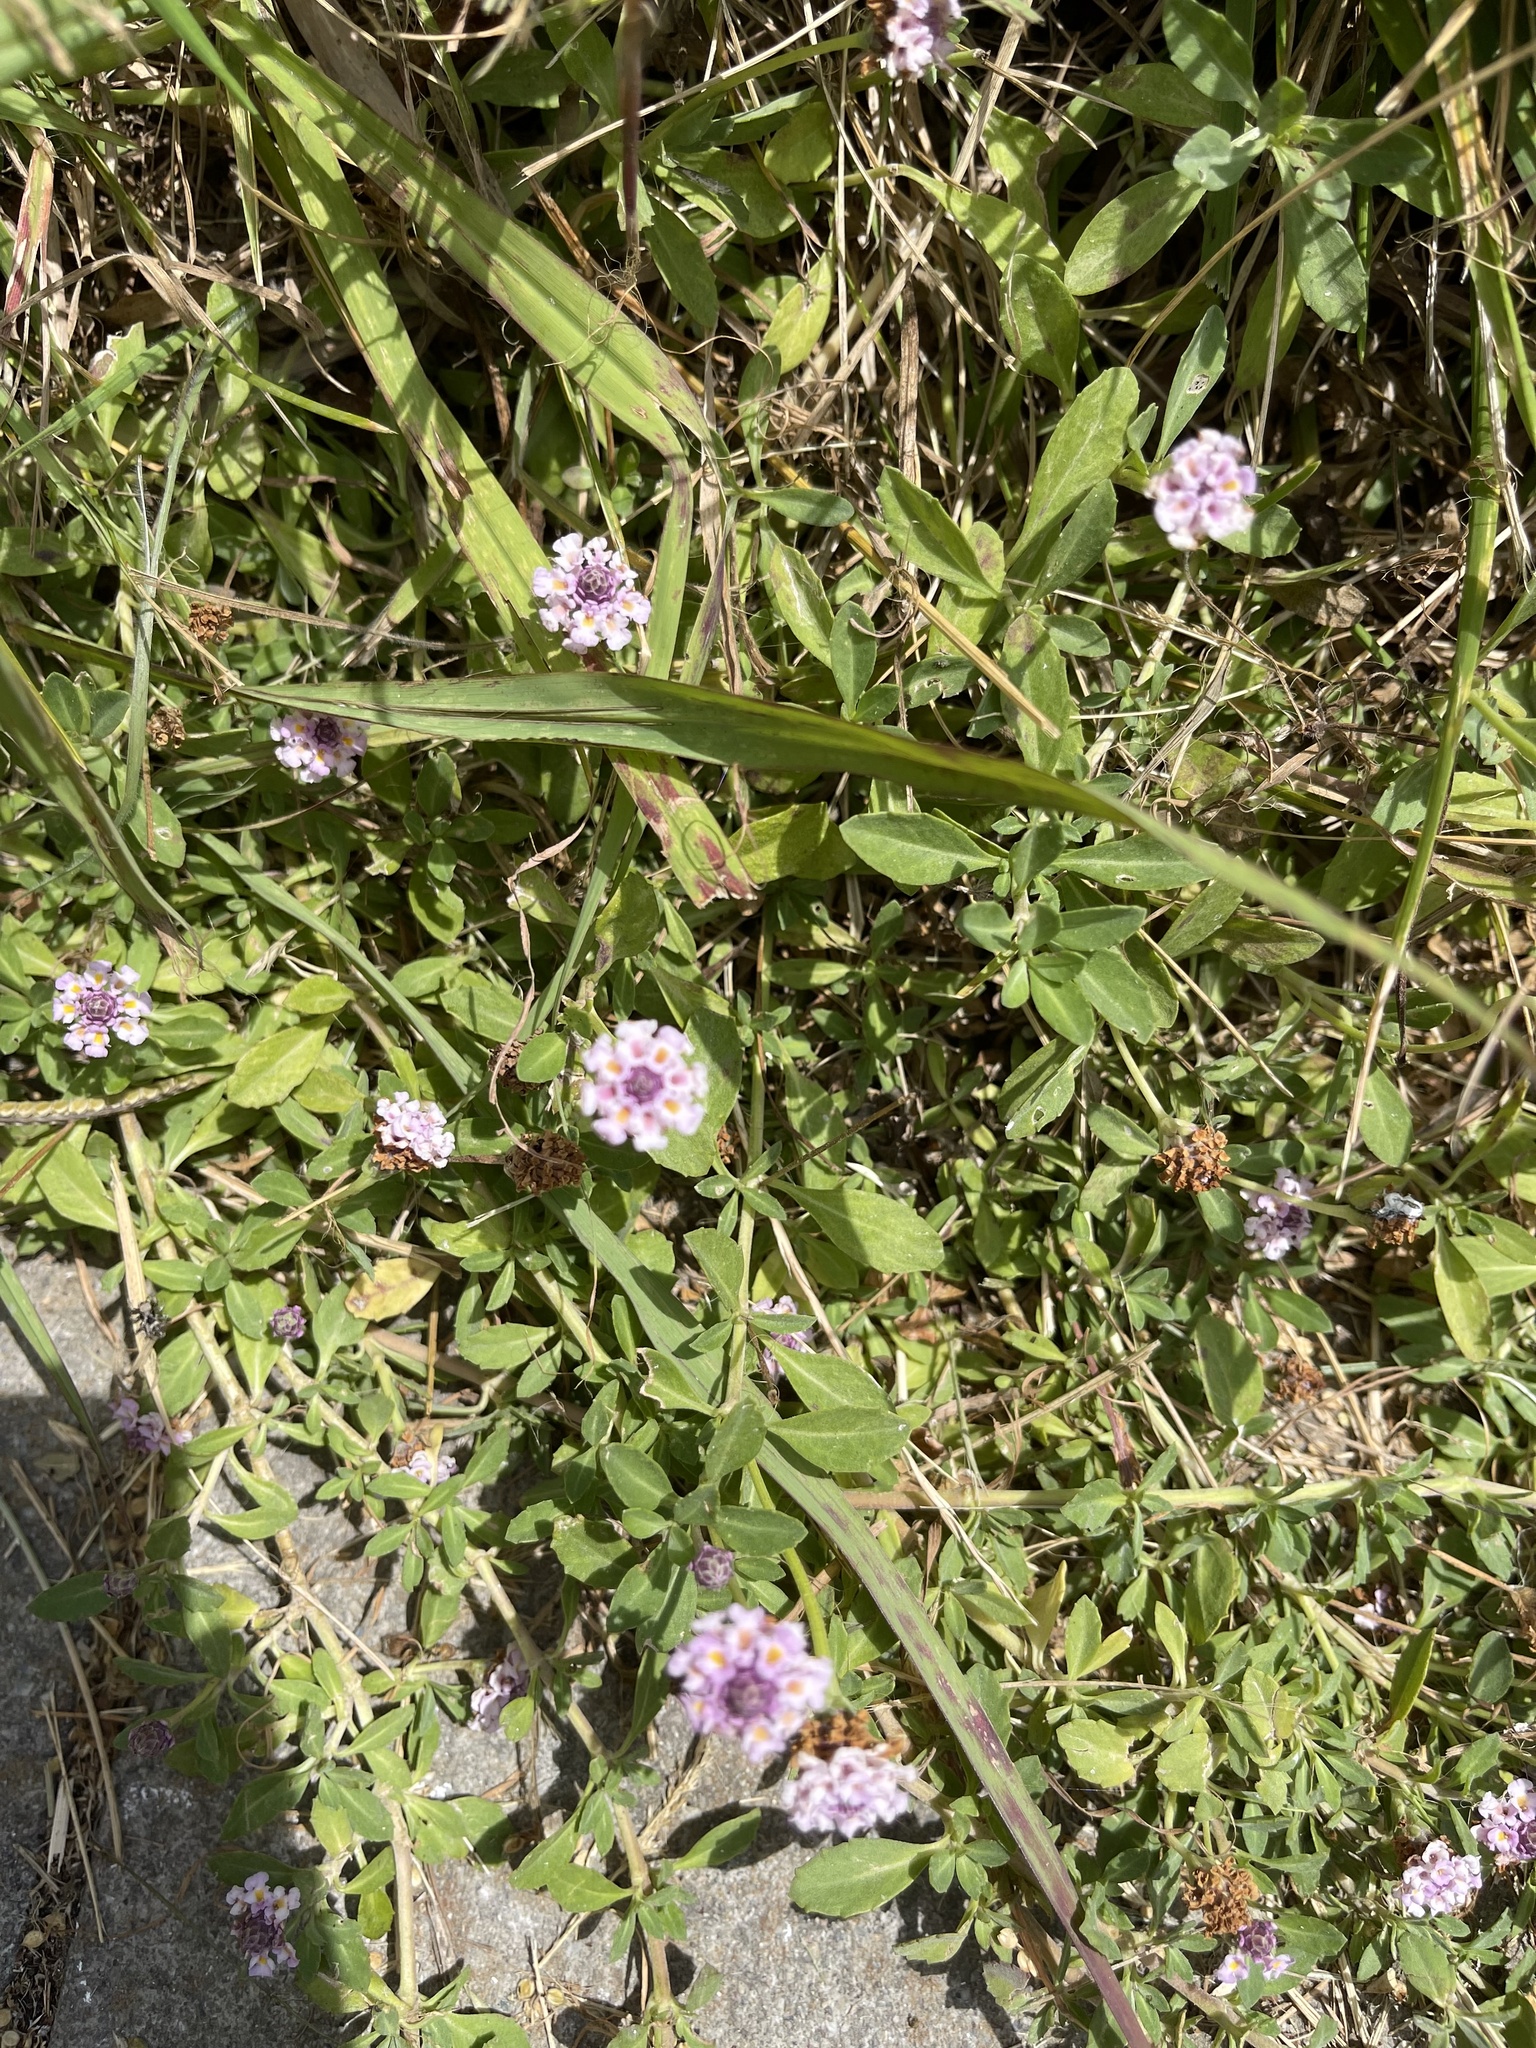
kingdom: Plantae
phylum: Tracheophyta
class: Magnoliopsida
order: Lamiales
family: Verbenaceae
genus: Phyla
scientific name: Phyla nodiflora
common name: Frogfruit
